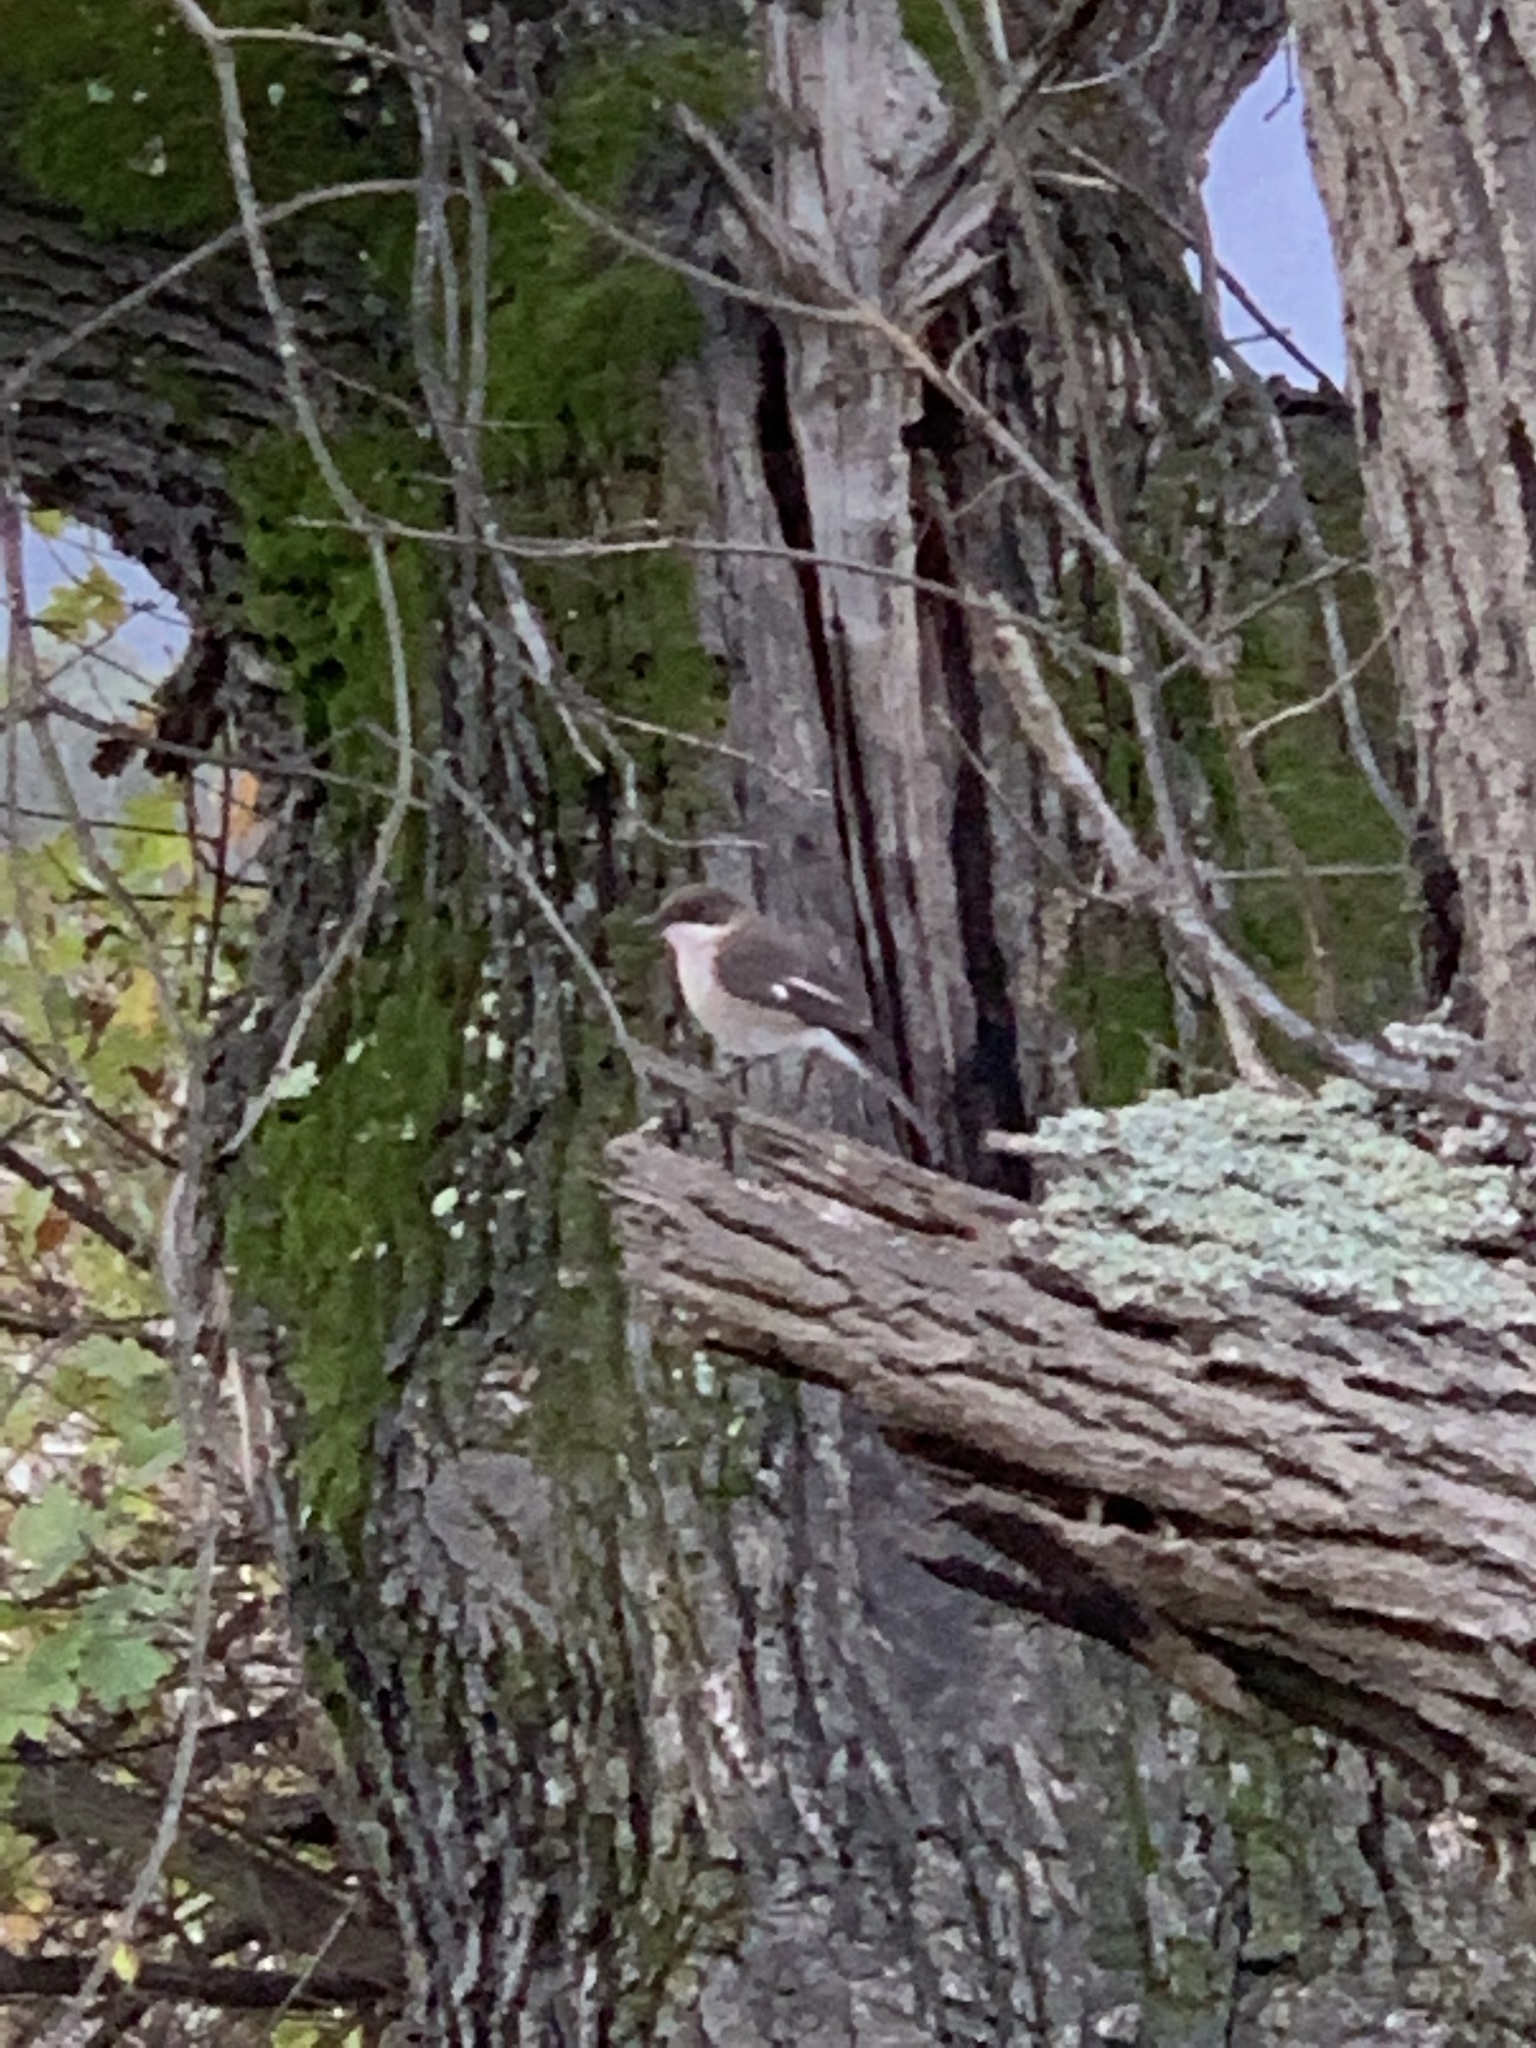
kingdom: Animalia
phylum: Chordata
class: Aves
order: Passeriformes
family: Muscicapidae
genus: Sigelus
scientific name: Sigelus silens
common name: Fiscal flycatcher
